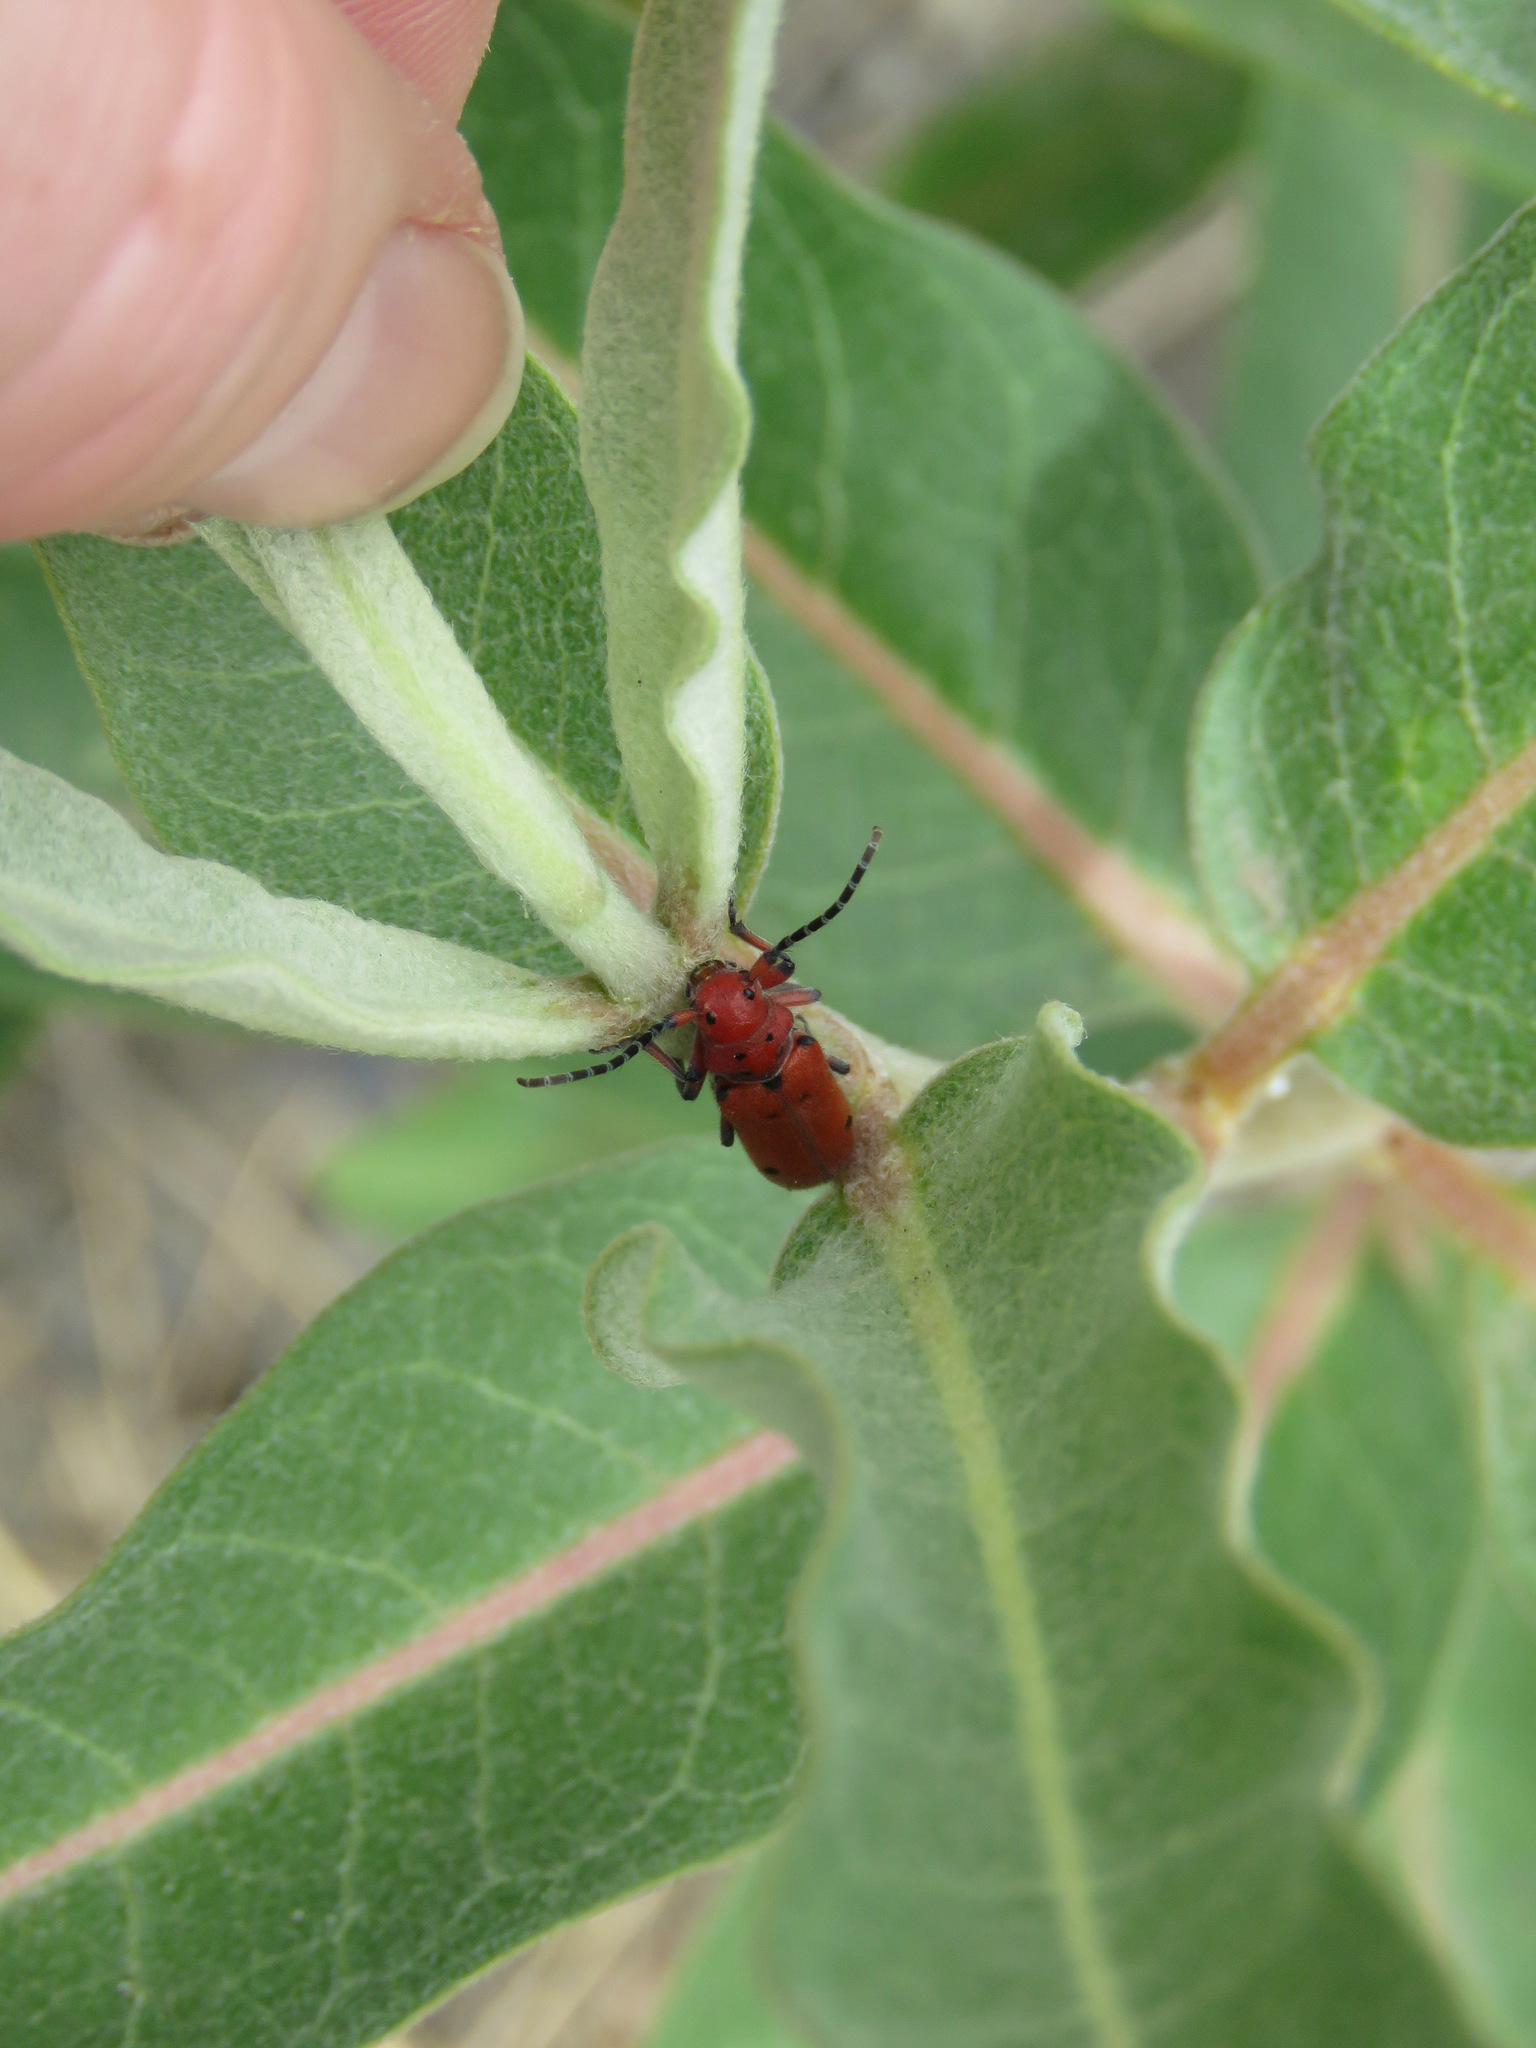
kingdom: Animalia
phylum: Arthropoda
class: Insecta
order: Coleoptera
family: Cerambycidae
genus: Tetraopes
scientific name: Tetraopes femoratus
